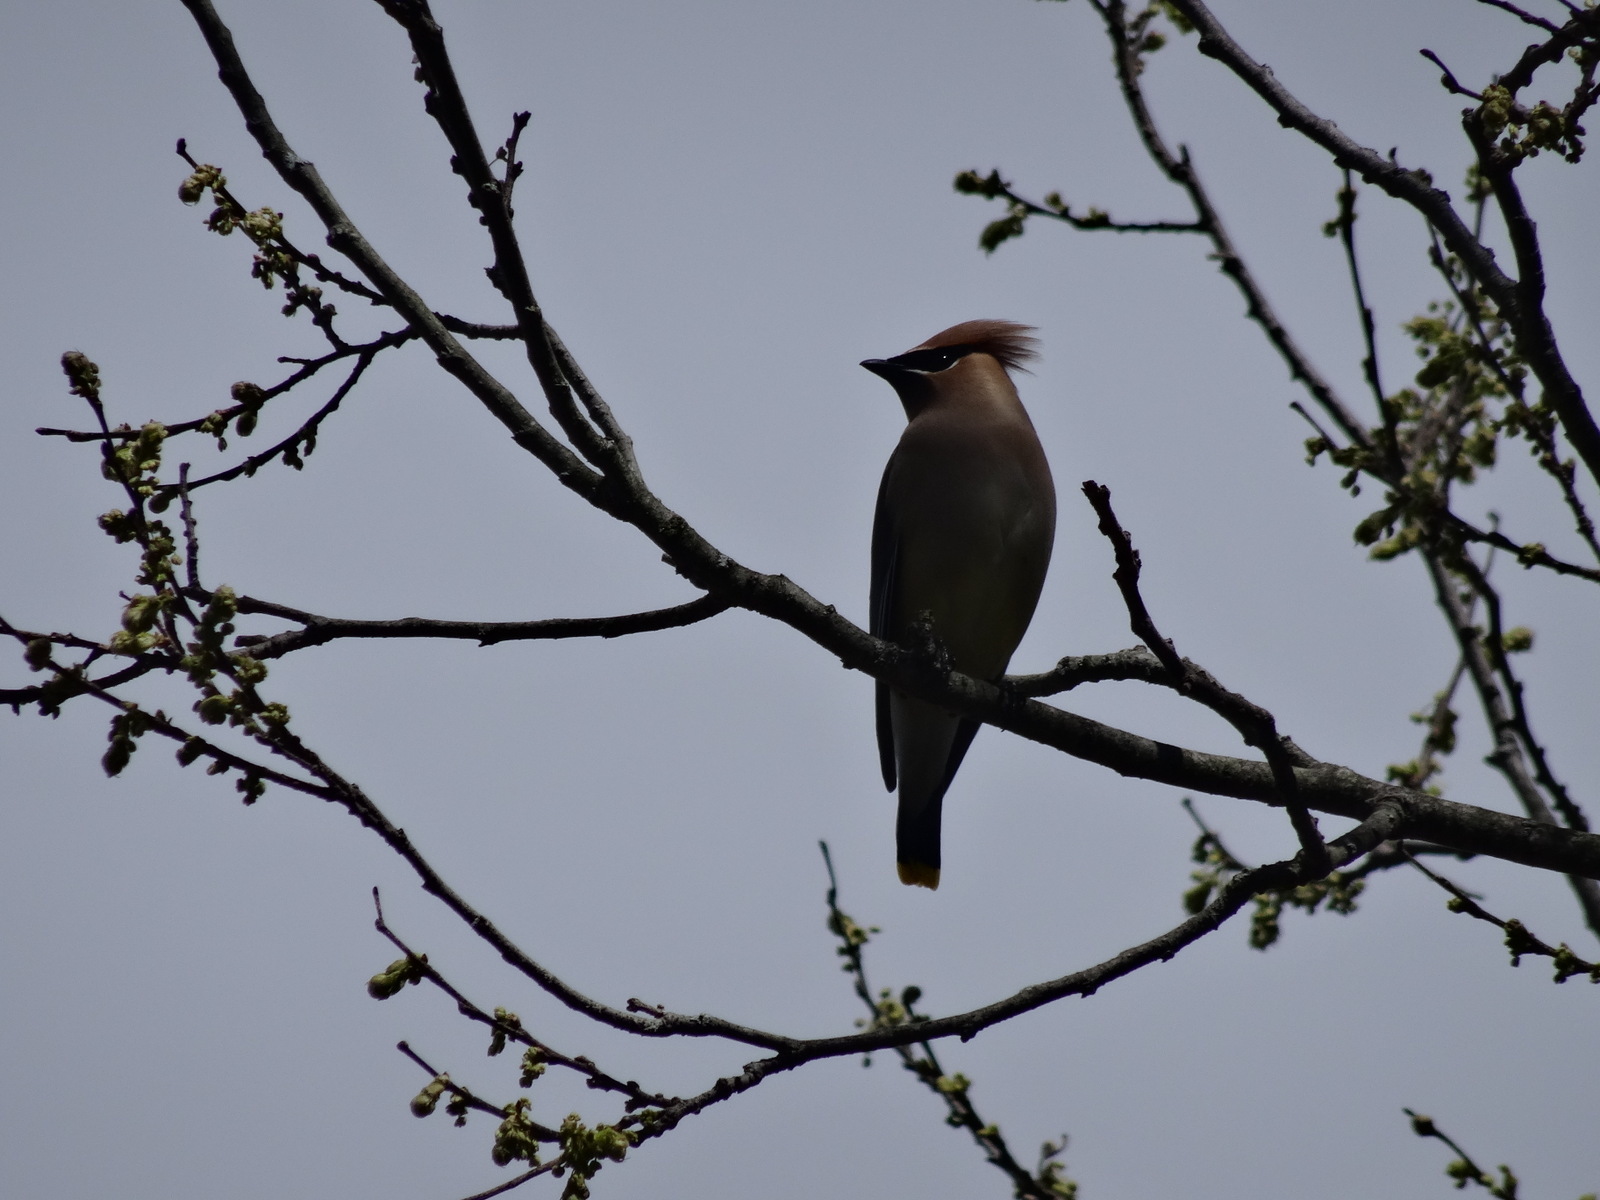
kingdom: Animalia
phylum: Chordata
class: Aves
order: Passeriformes
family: Bombycillidae
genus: Bombycilla
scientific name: Bombycilla cedrorum
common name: Cedar waxwing
